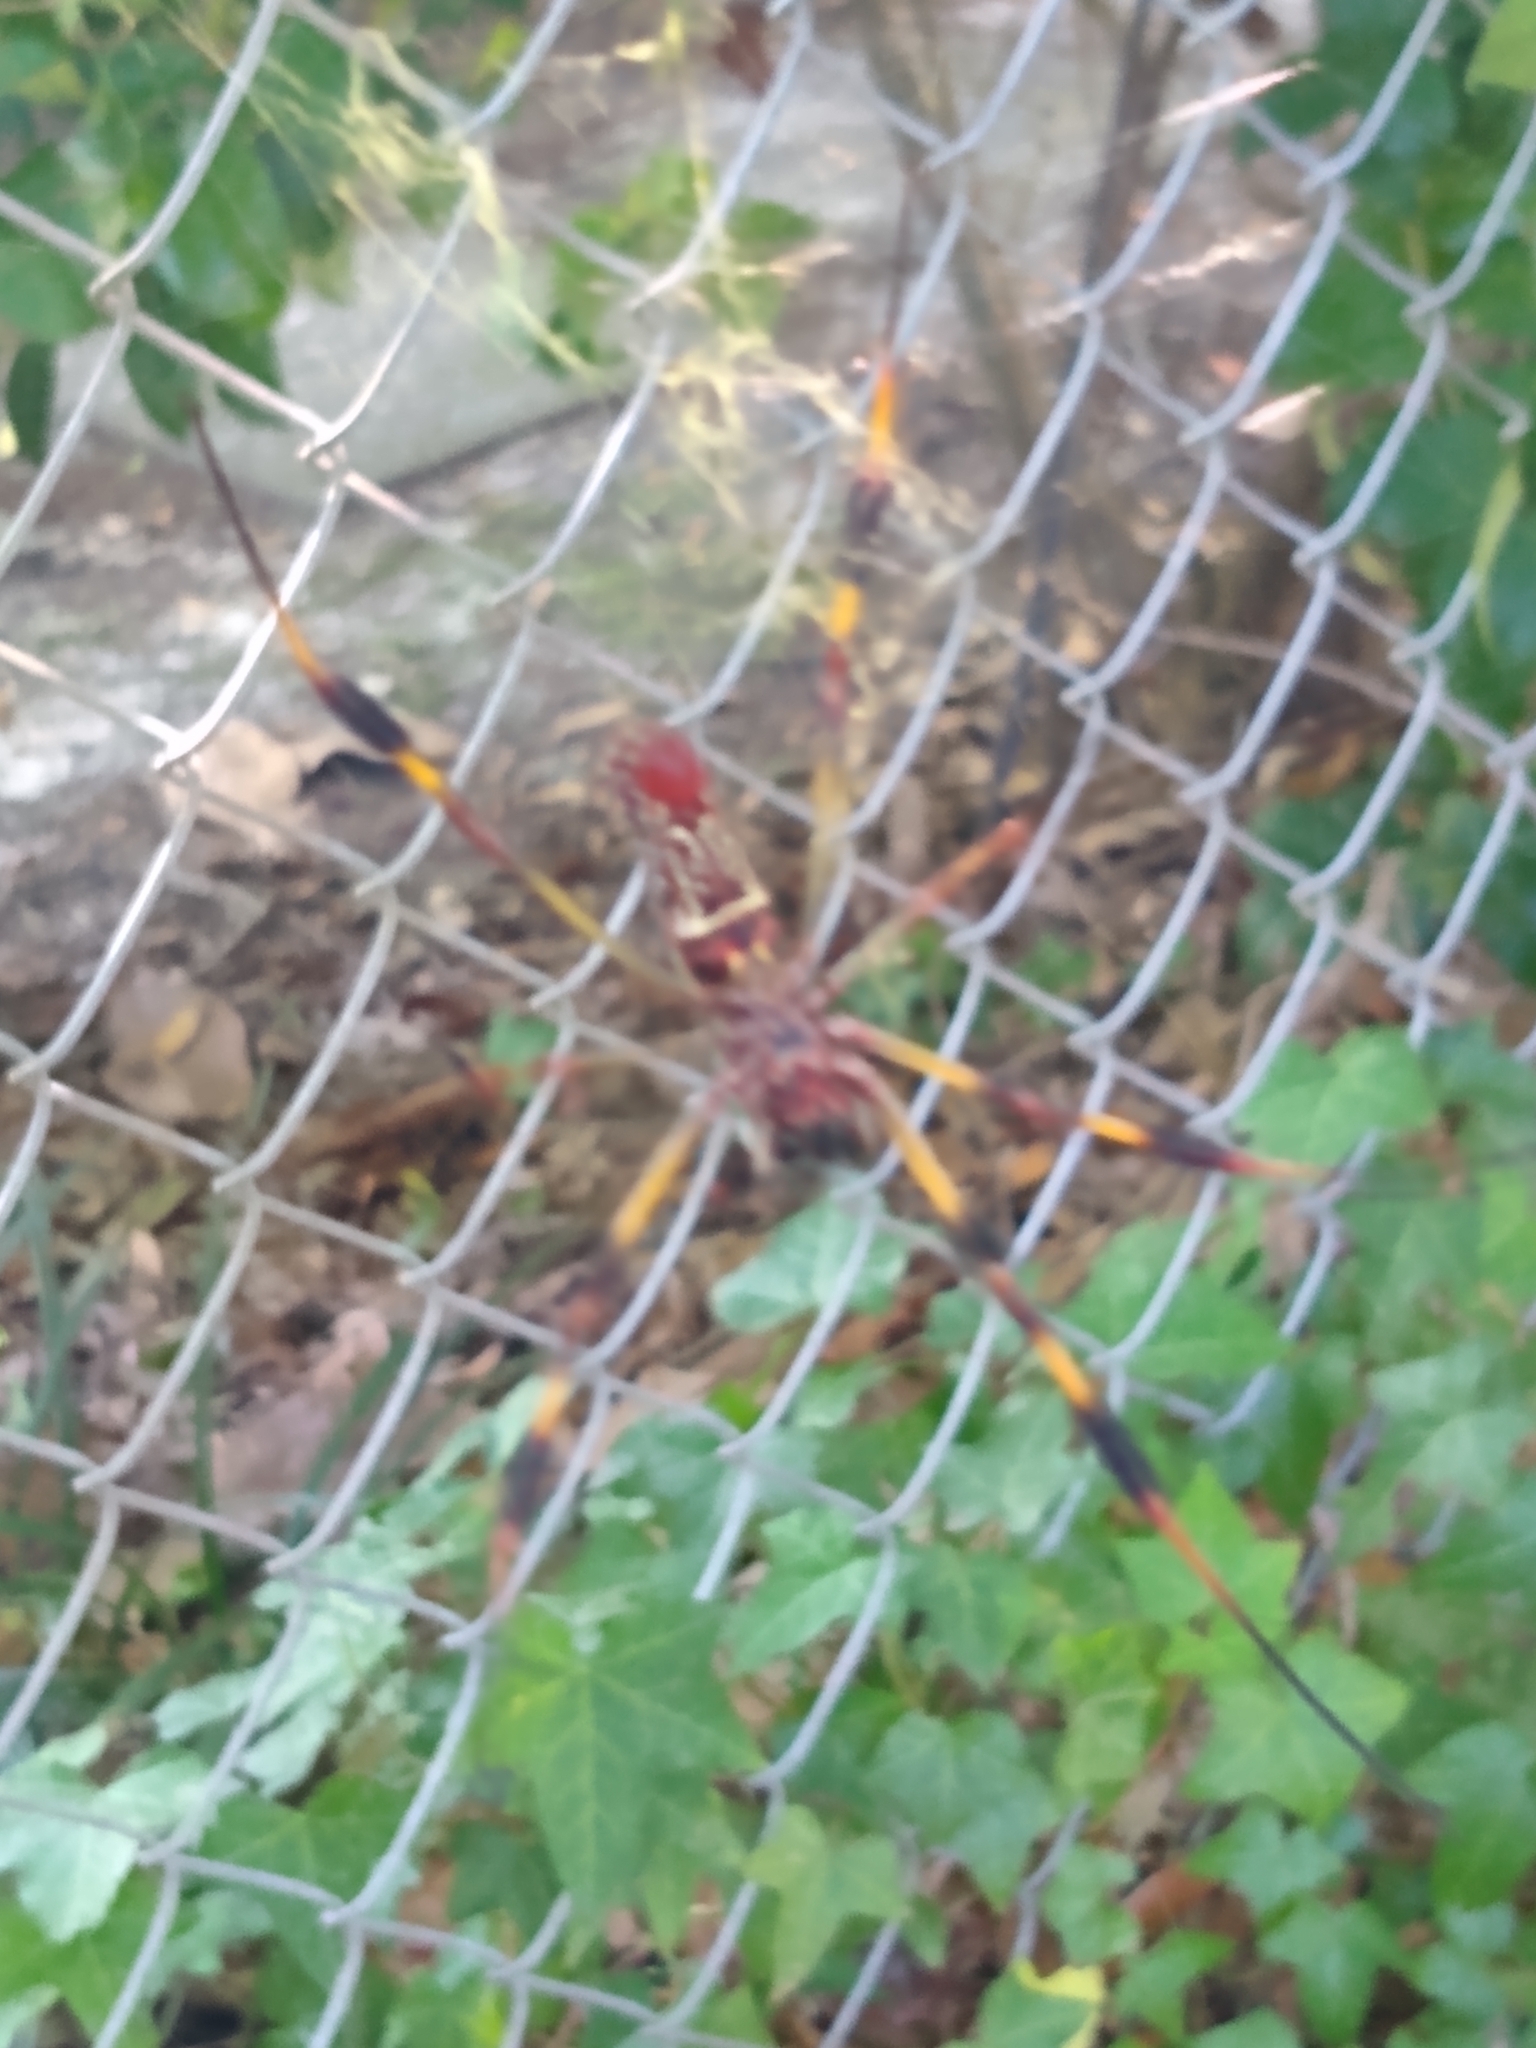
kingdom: Animalia
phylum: Arthropoda
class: Arachnida
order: Araneae
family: Araneidae
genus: Trichonephila
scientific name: Trichonephila clavipes
